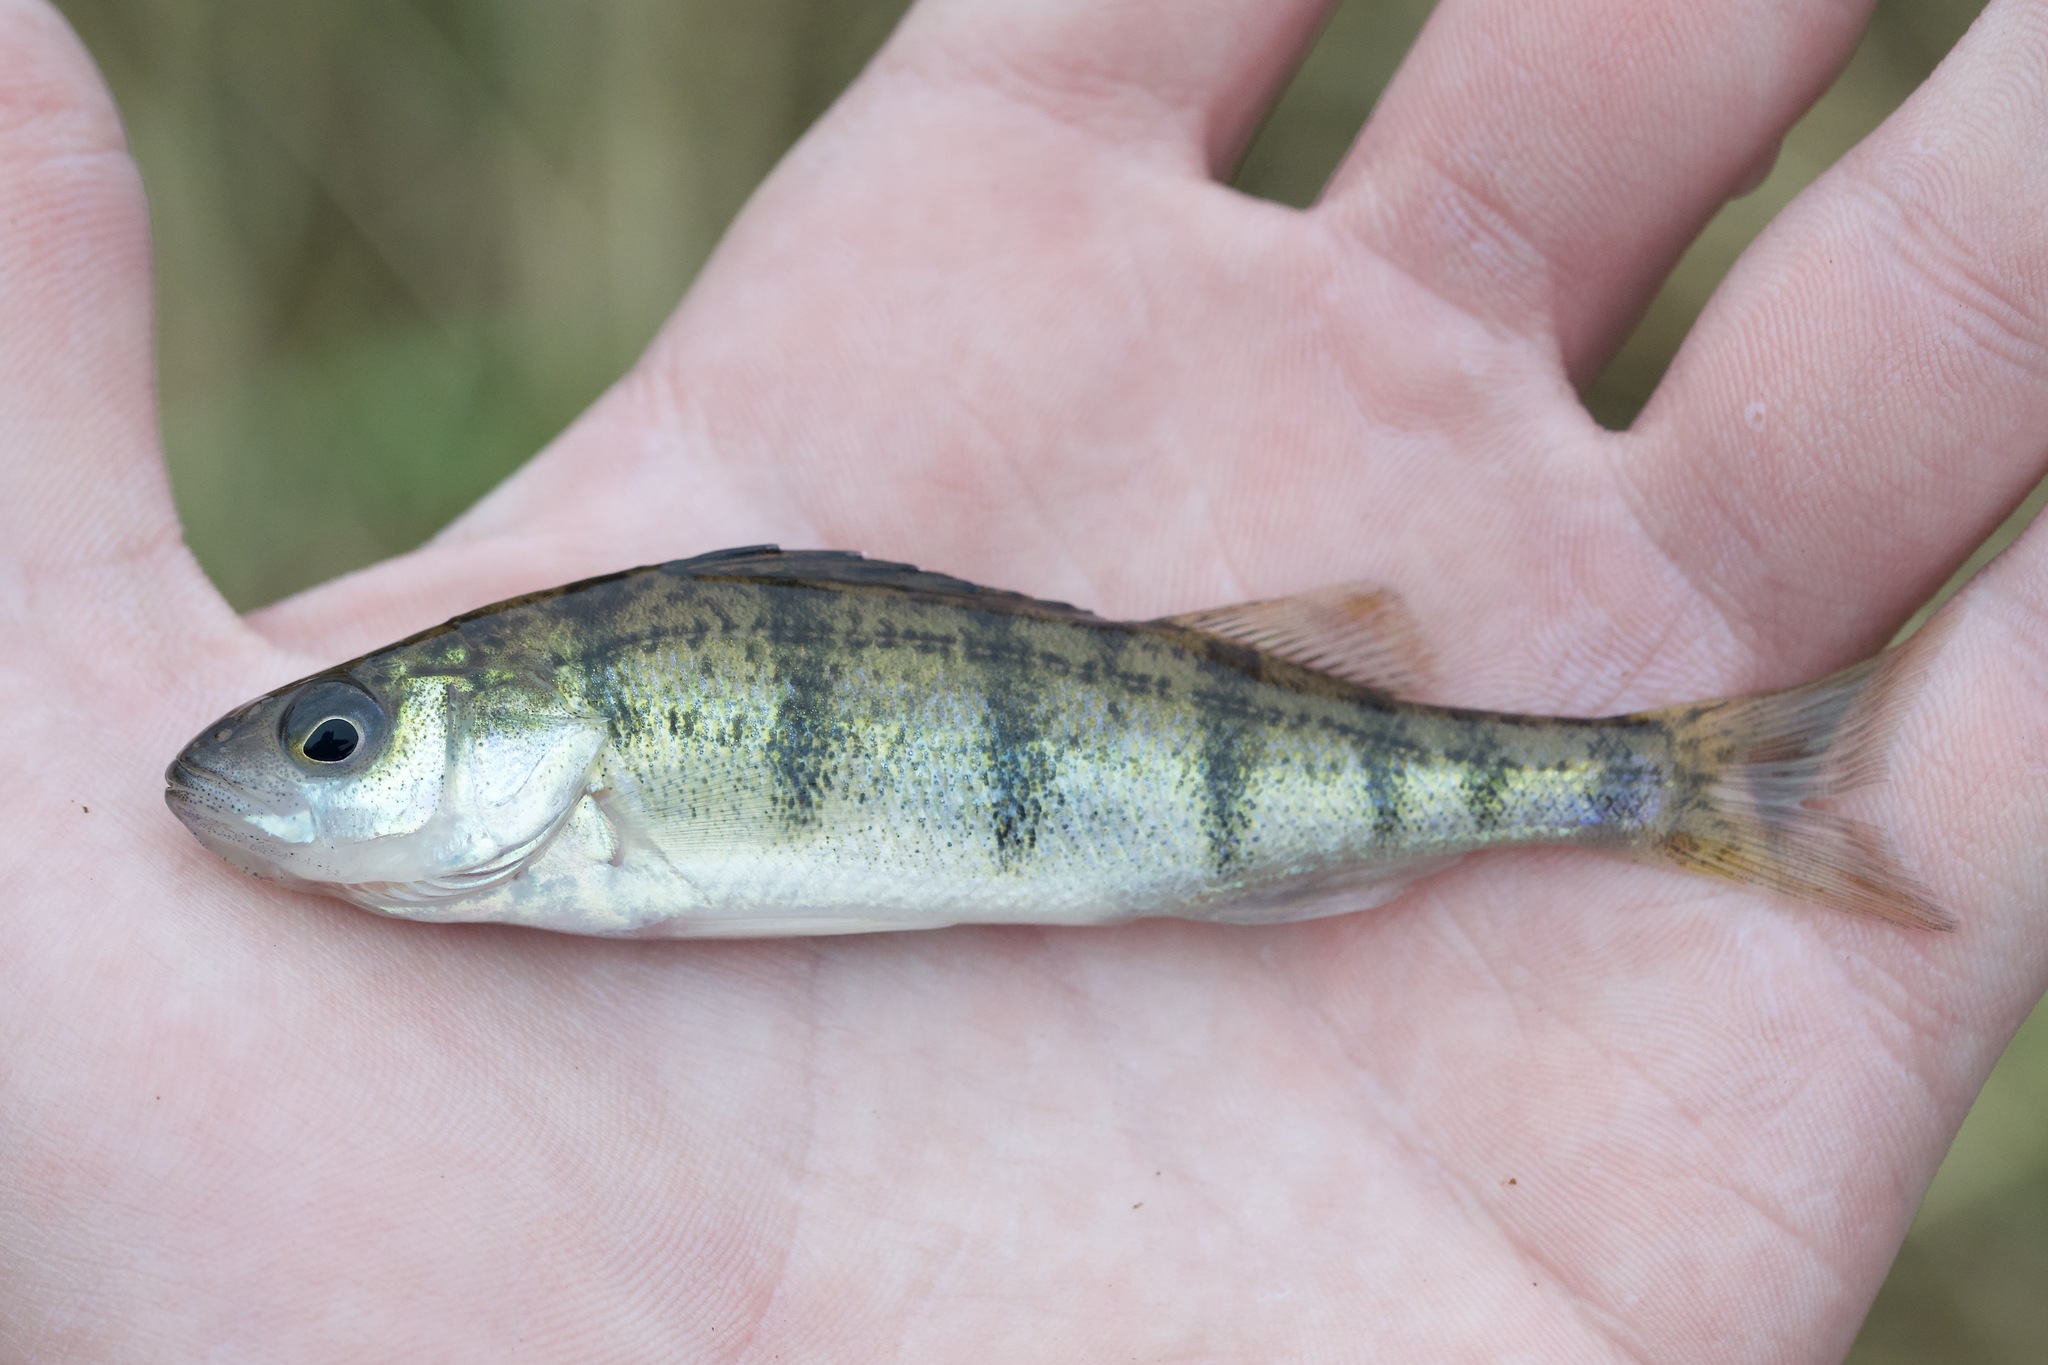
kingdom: Animalia
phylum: Chordata
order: Perciformes
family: Percidae
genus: Perca
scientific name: Perca flavescens
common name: Yellow perch
